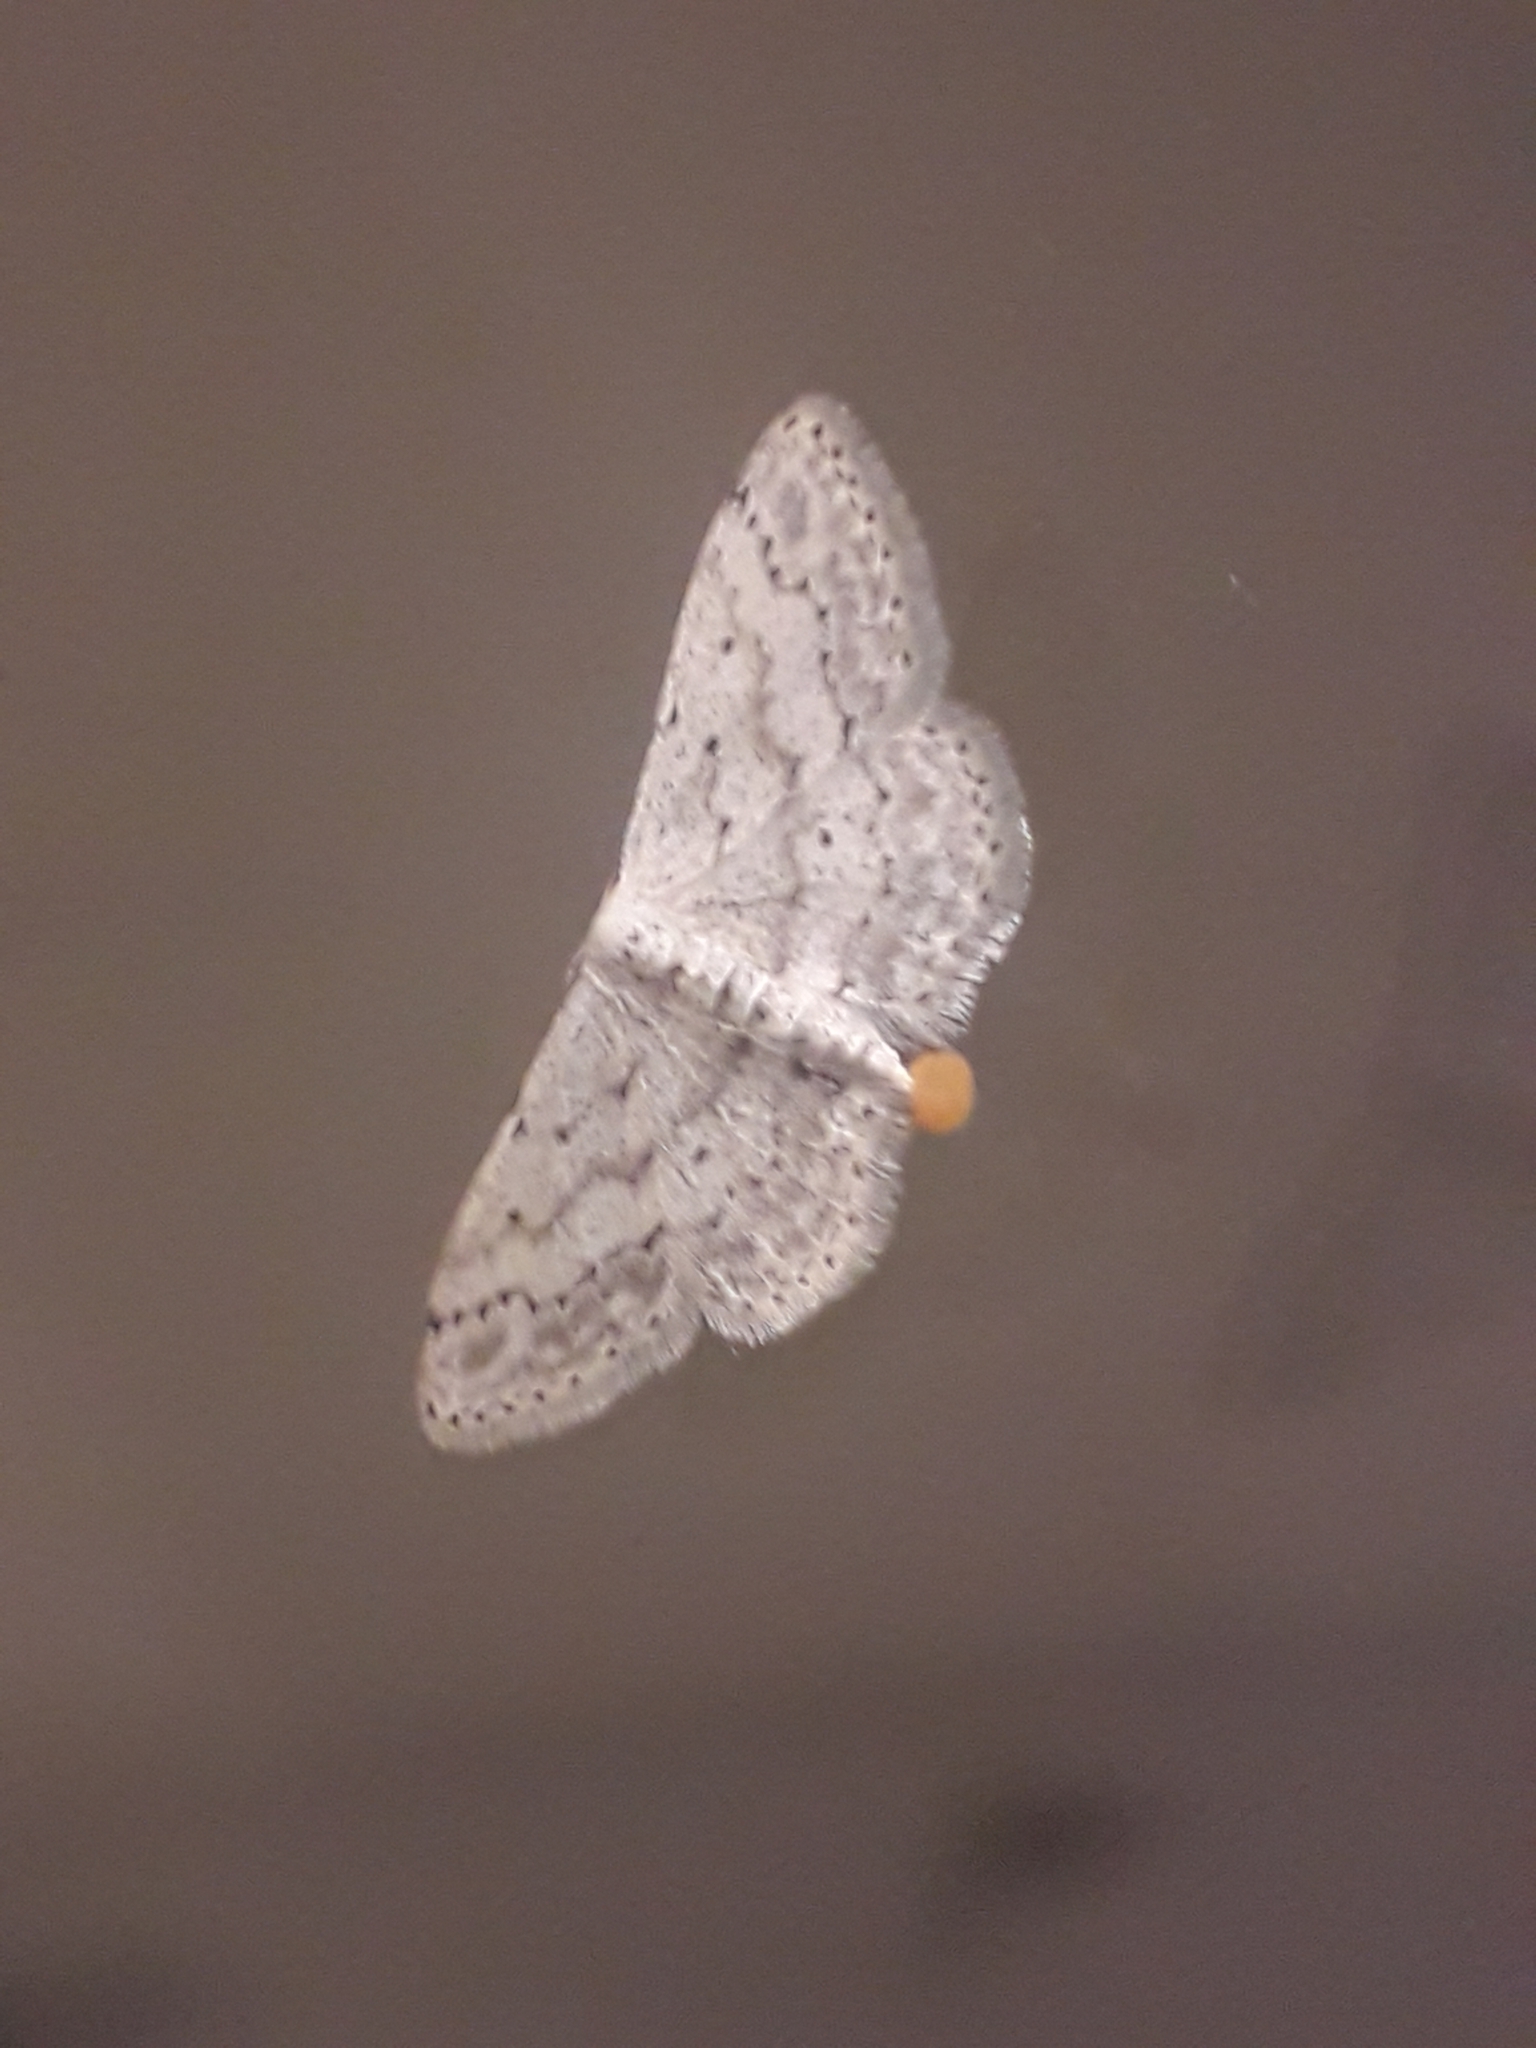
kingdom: Animalia
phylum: Arthropoda
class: Insecta
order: Lepidoptera
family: Geometridae
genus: Idaea
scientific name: Idaea seriata
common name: Small dusty wave
